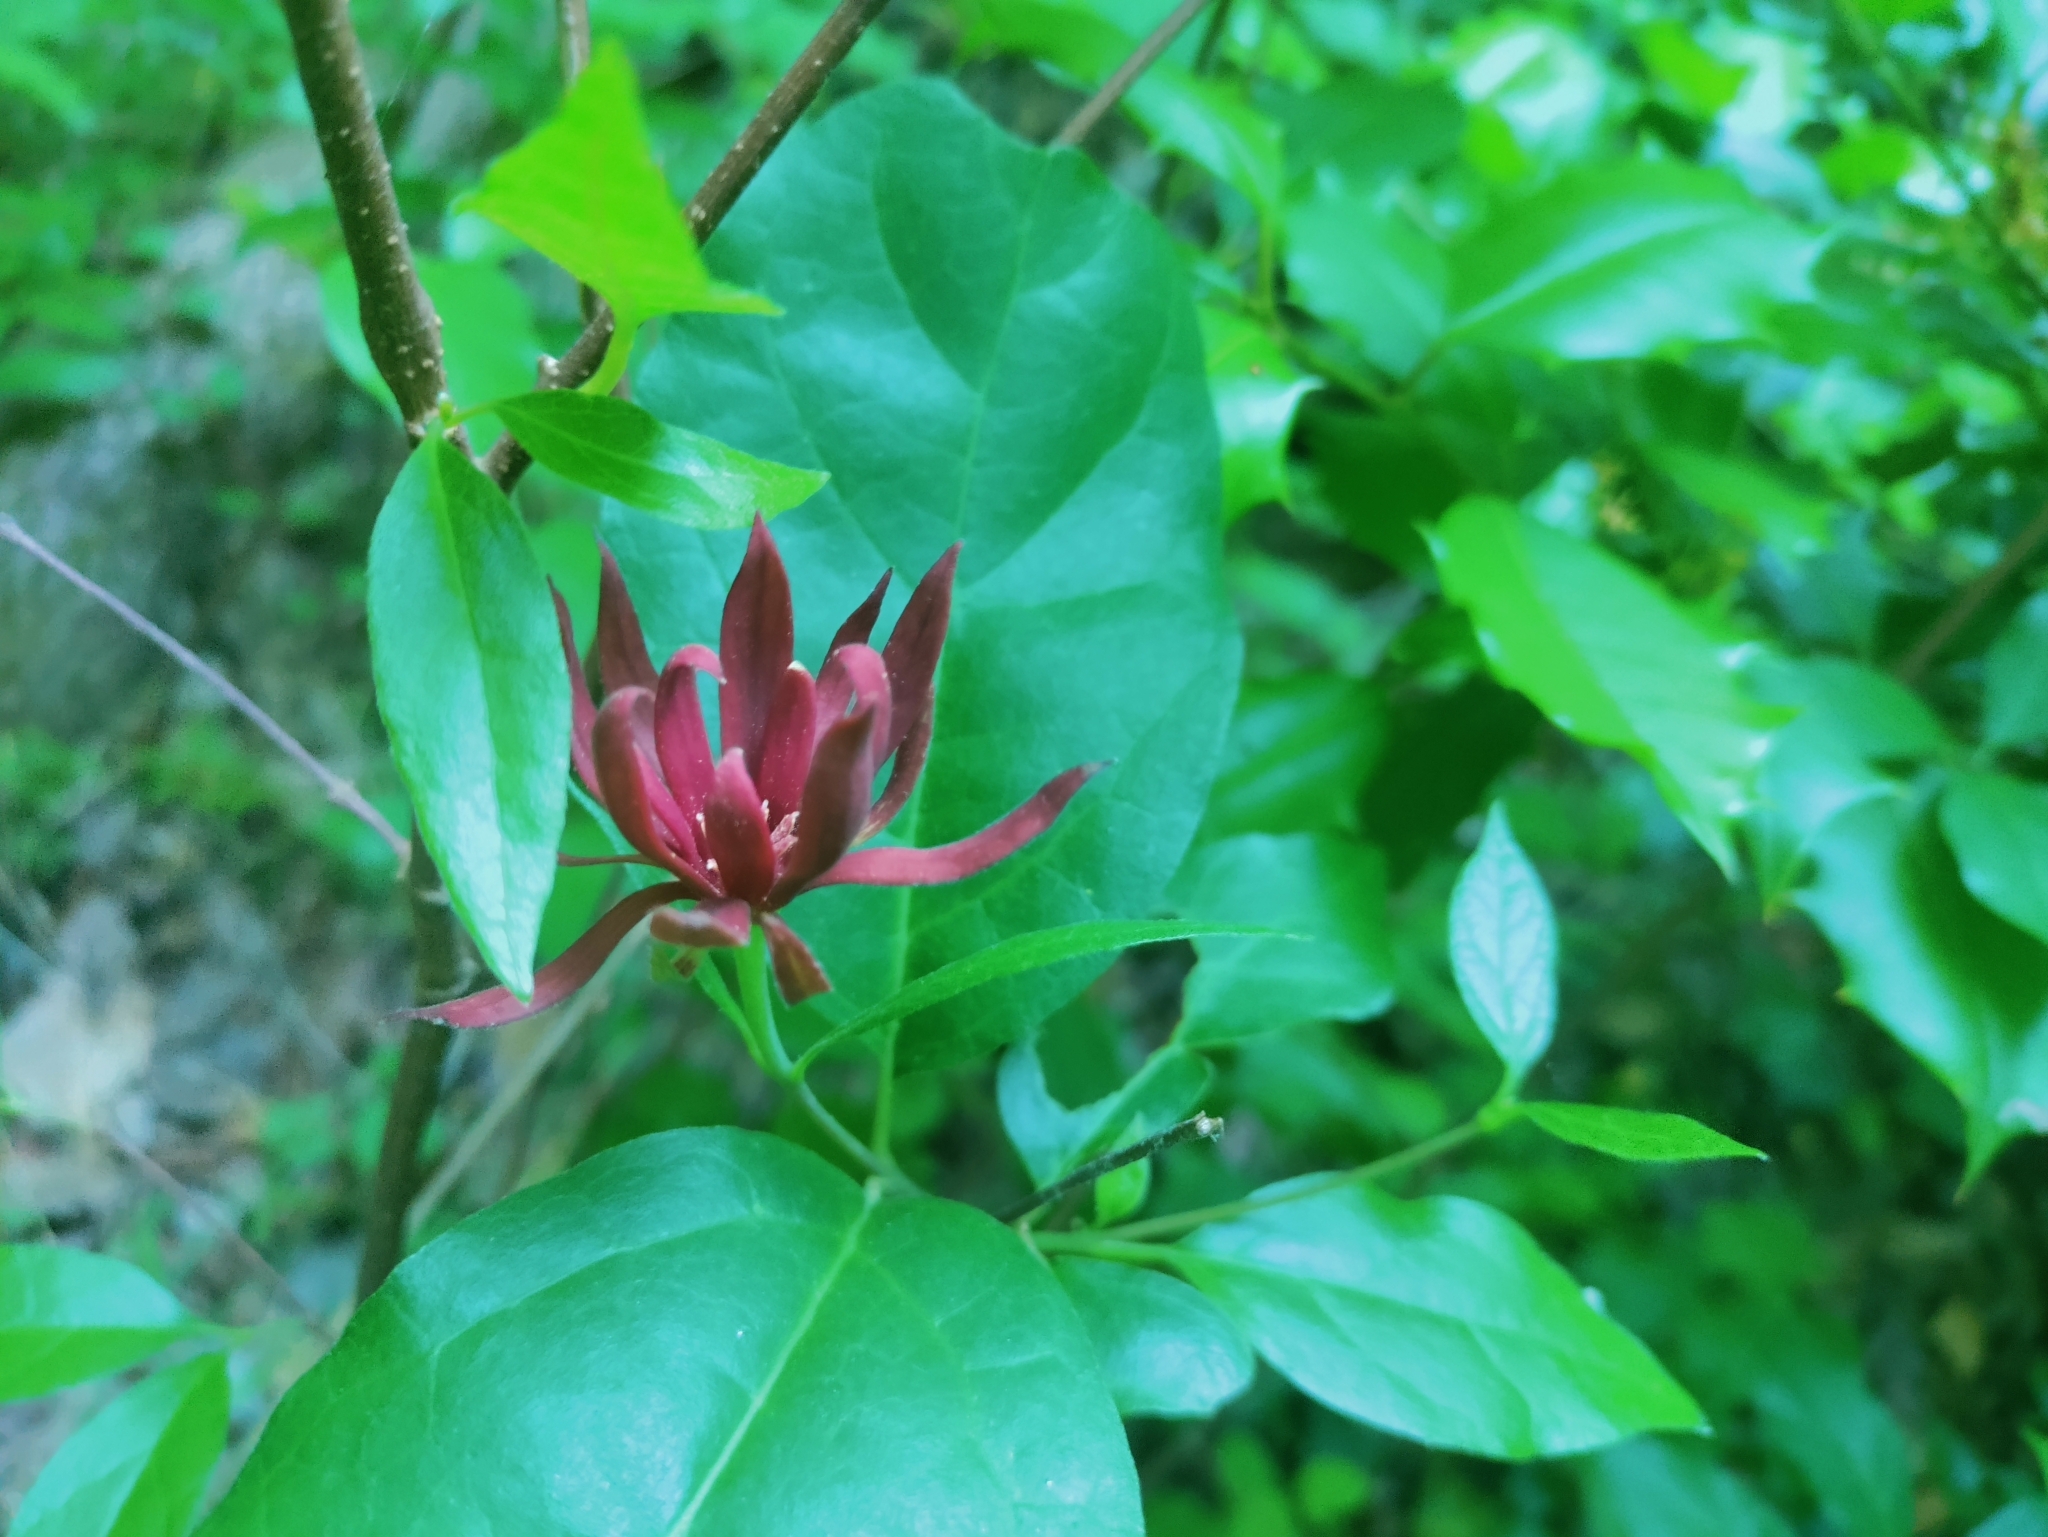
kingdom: Plantae
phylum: Tracheophyta
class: Magnoliopsida
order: Laurales
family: Calycanthaceae
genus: Calycanthus
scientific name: Calycanthus floridus
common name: Carolina-allspice
